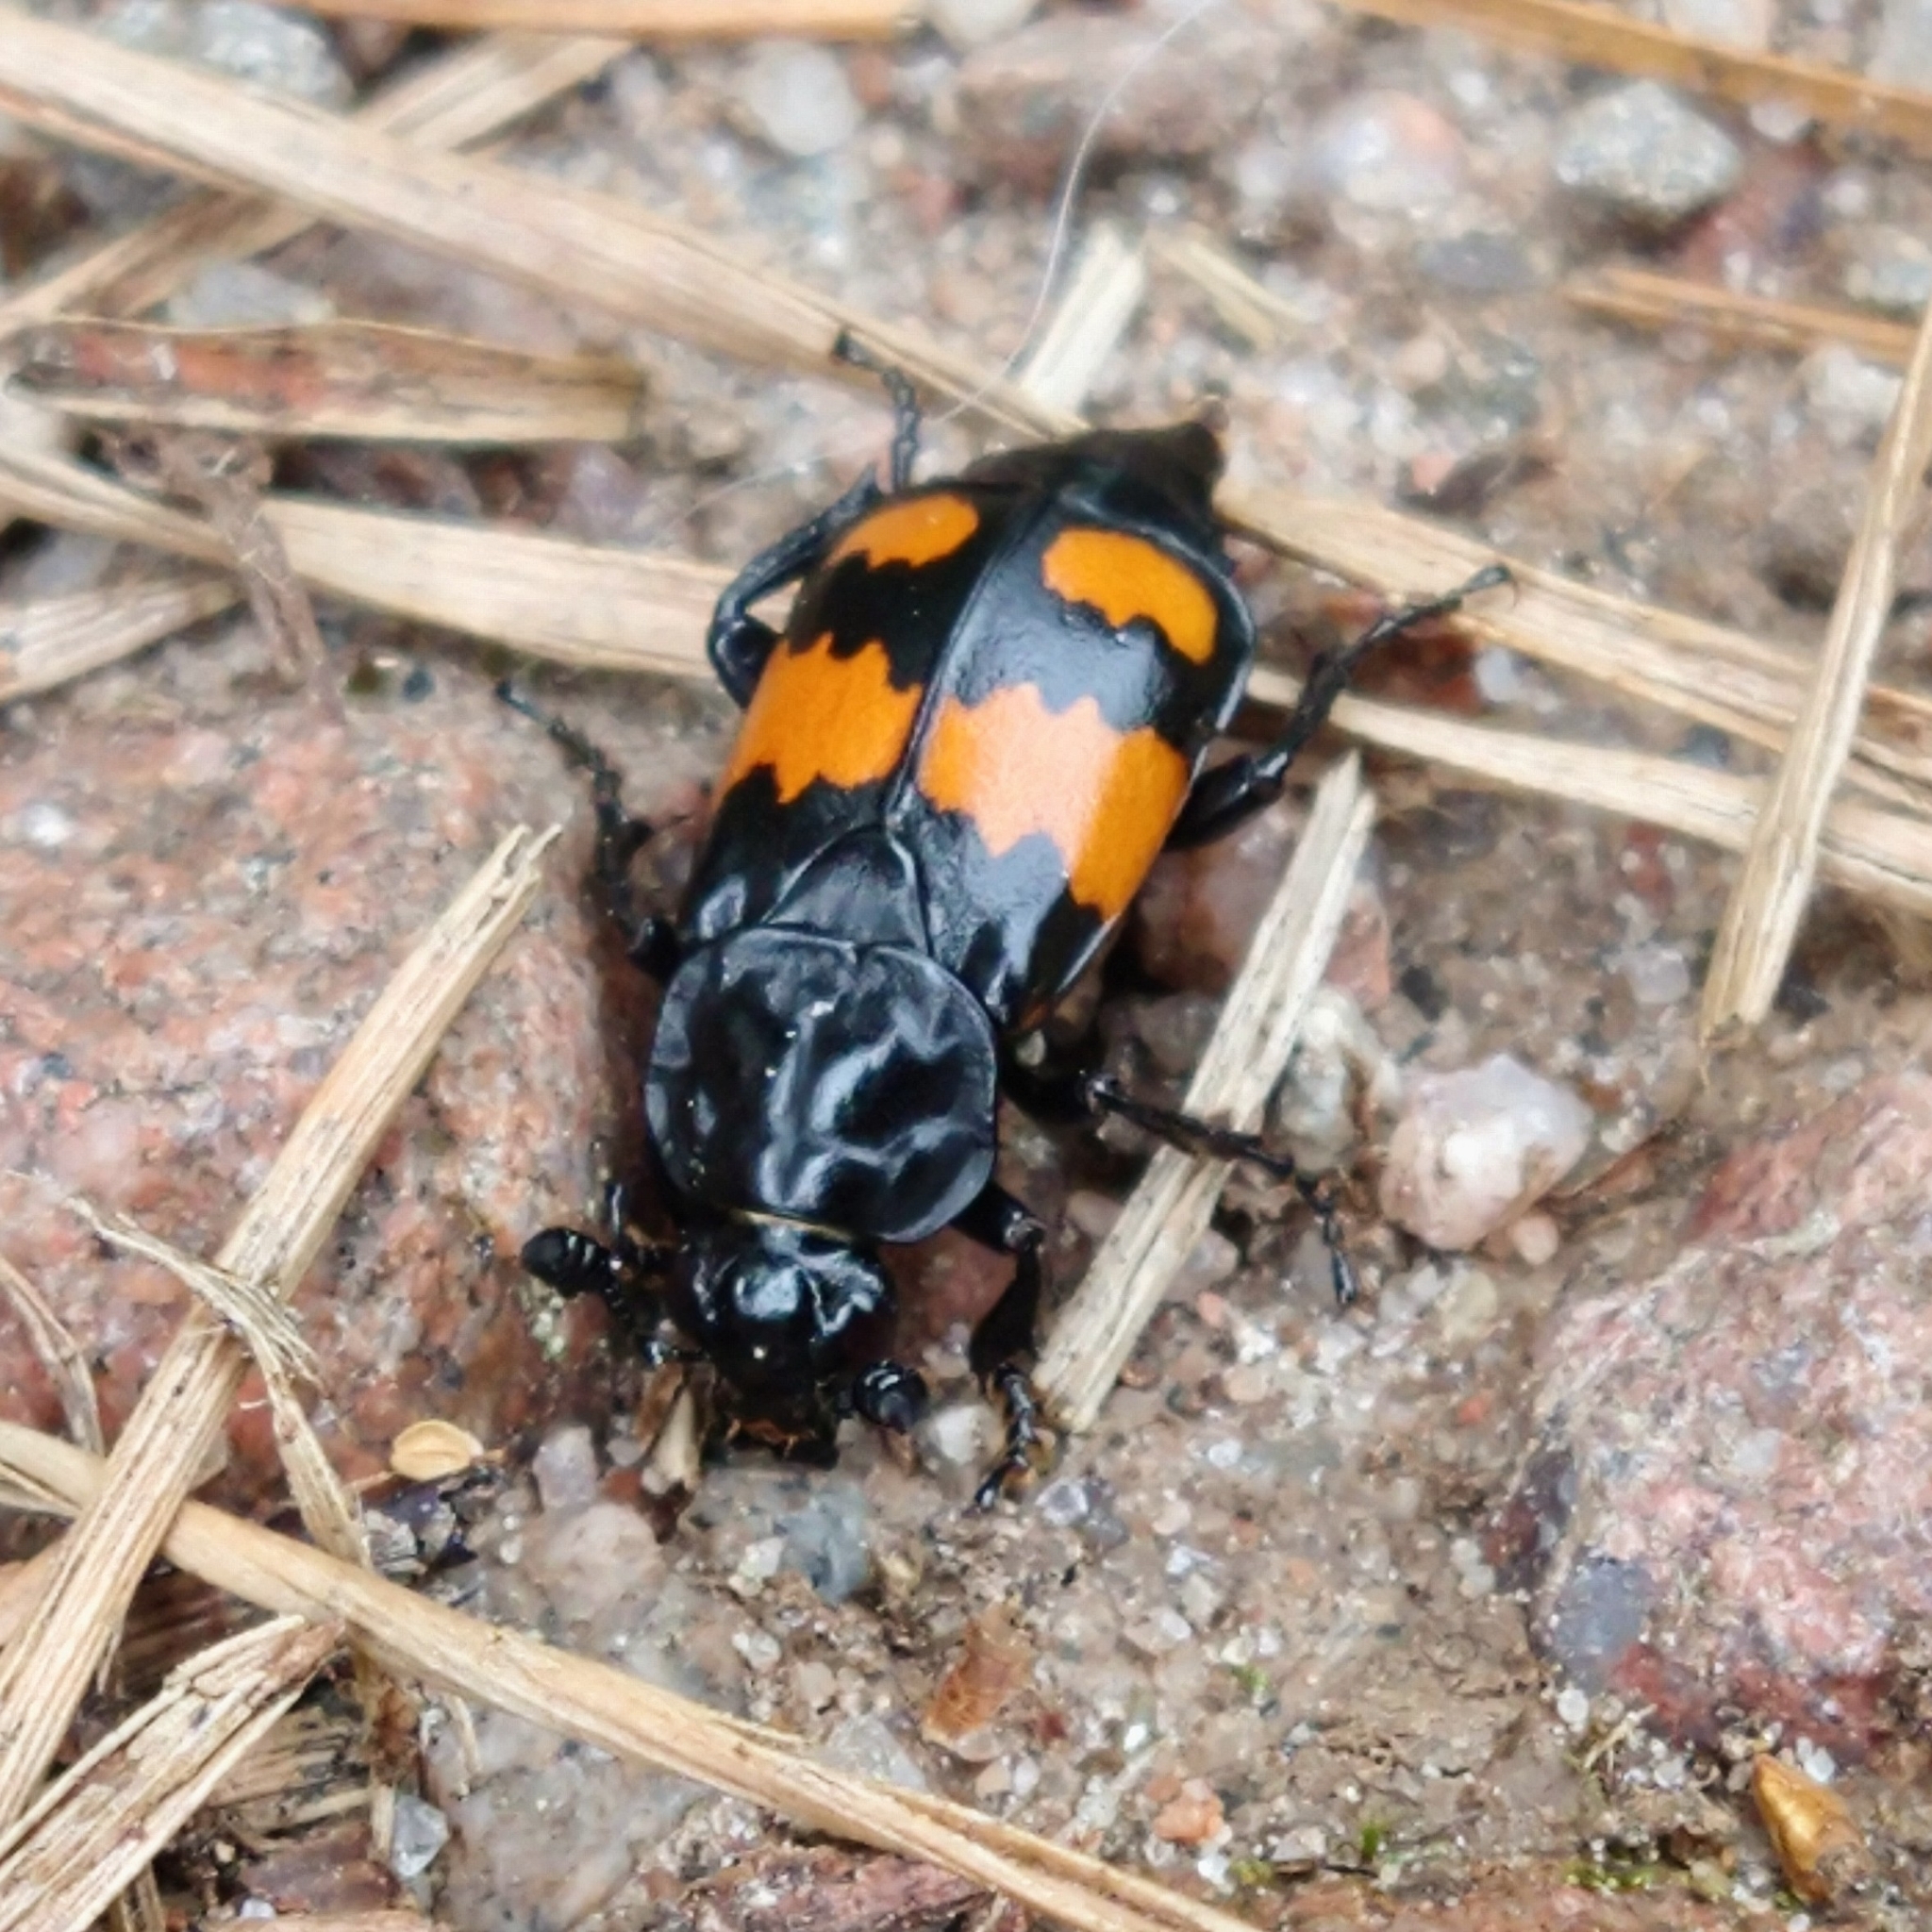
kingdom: Animalia
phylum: Arthropoda
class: Insecta
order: Coleoptera
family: Staphylinidae
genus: Nicrophorus
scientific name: Nicrophorus vespilloides
